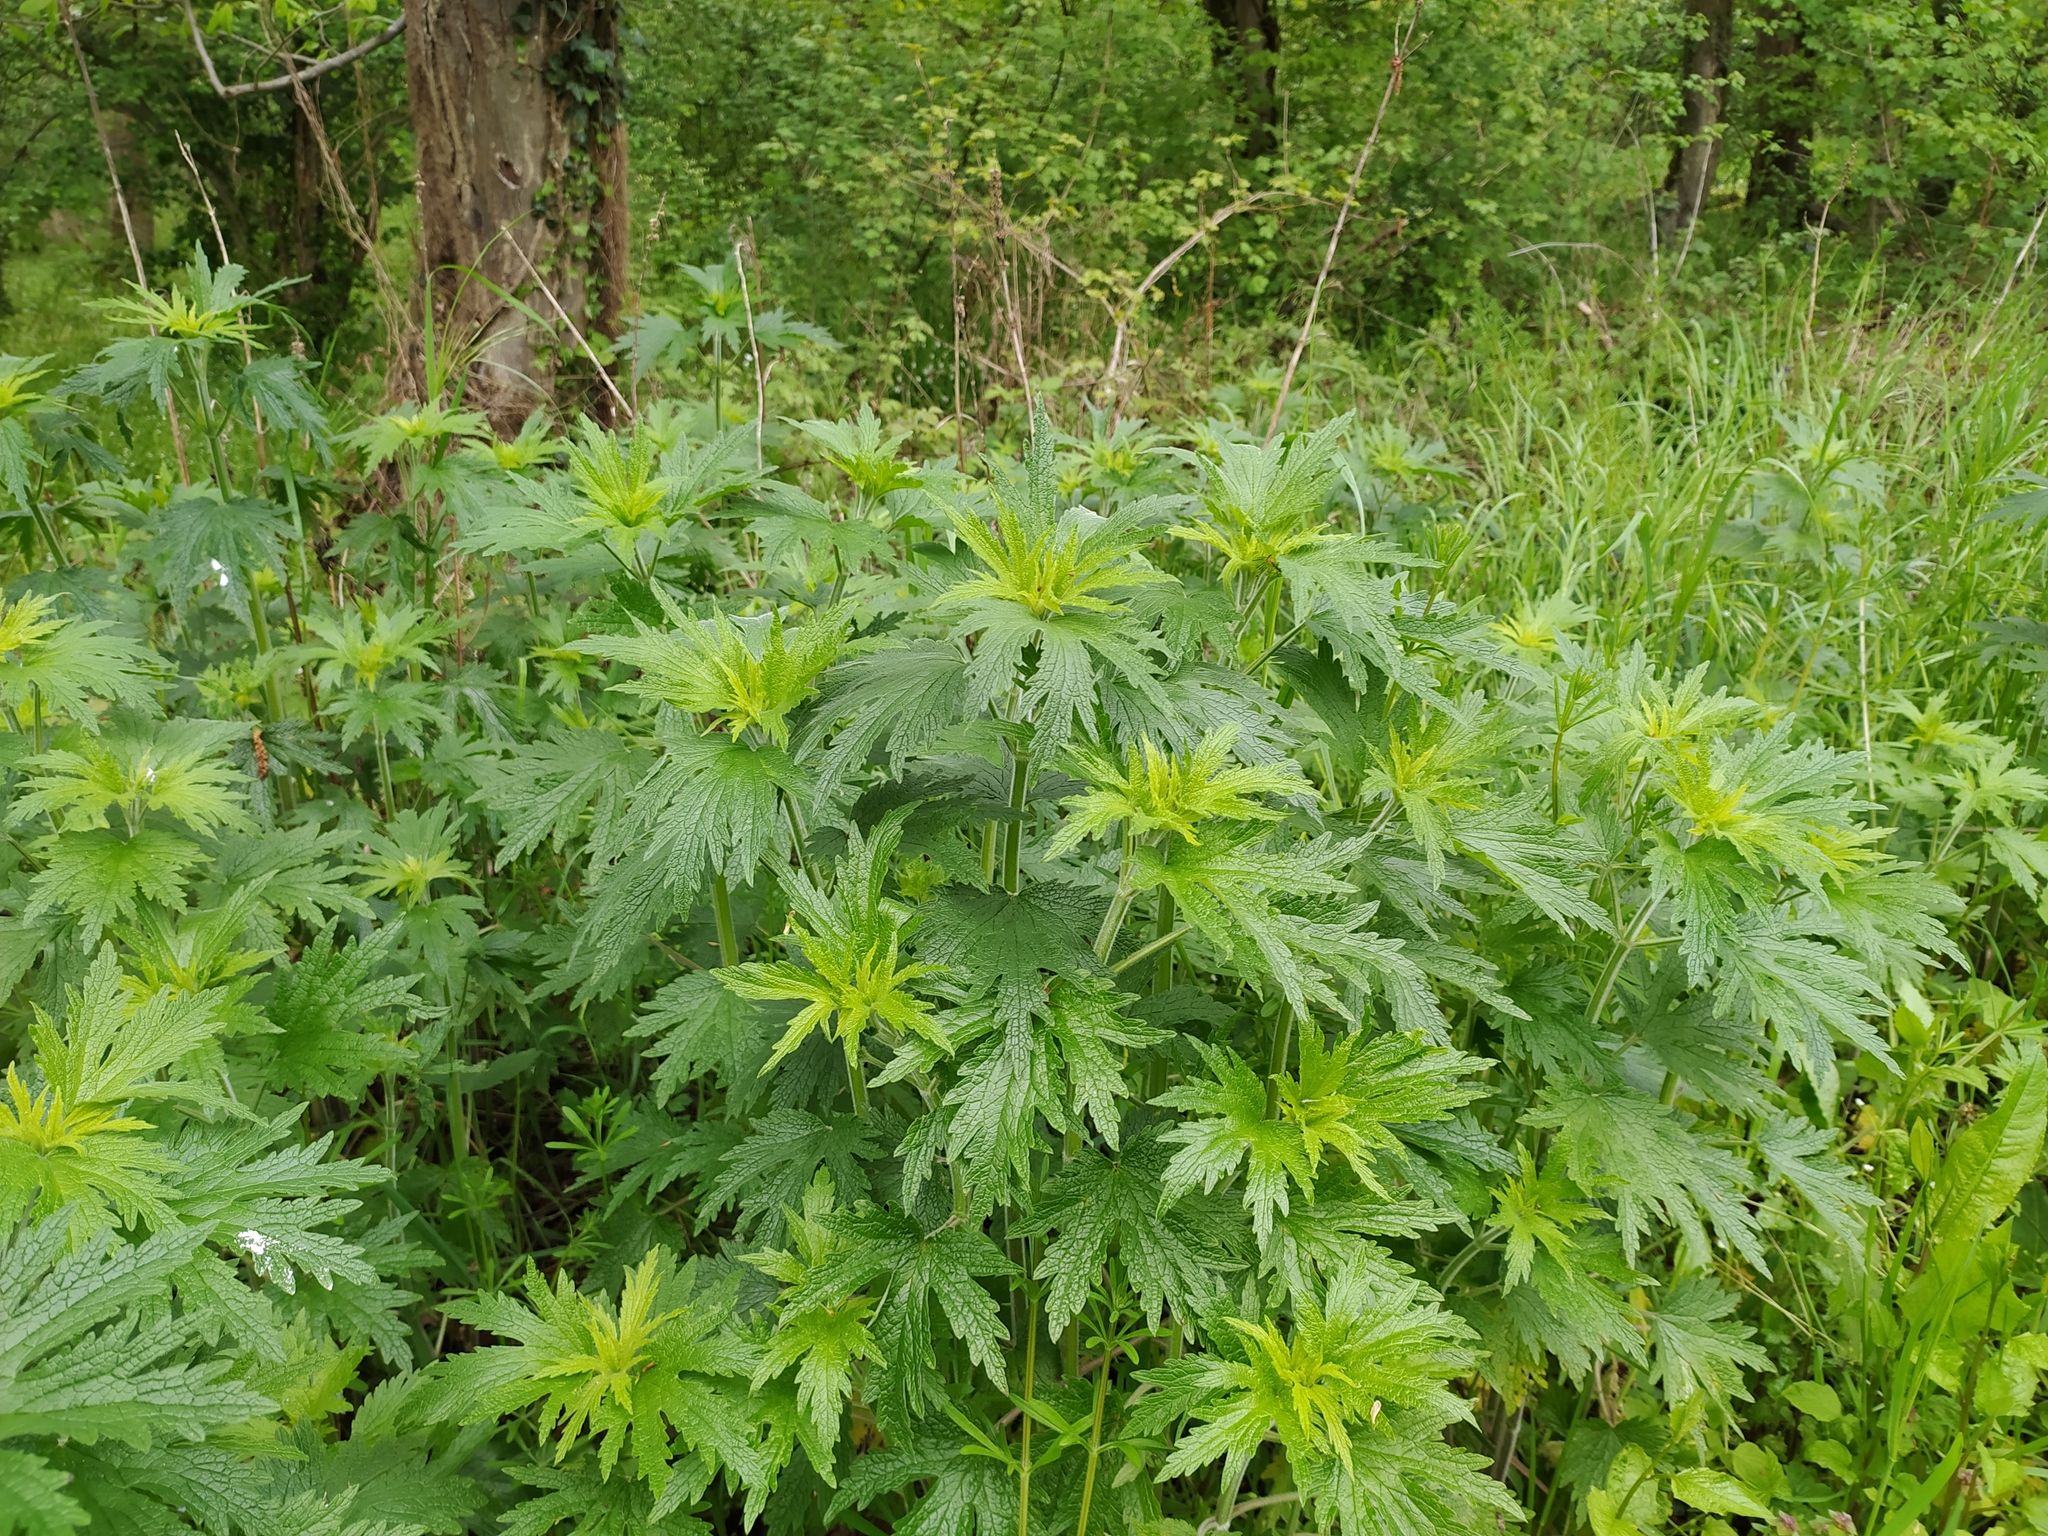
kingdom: Plantae
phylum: Tracheophyta
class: Magnoliopsida
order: Lamiales
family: Lamiaceae
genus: Leonurus
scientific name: Leonurus quinquelobatus
